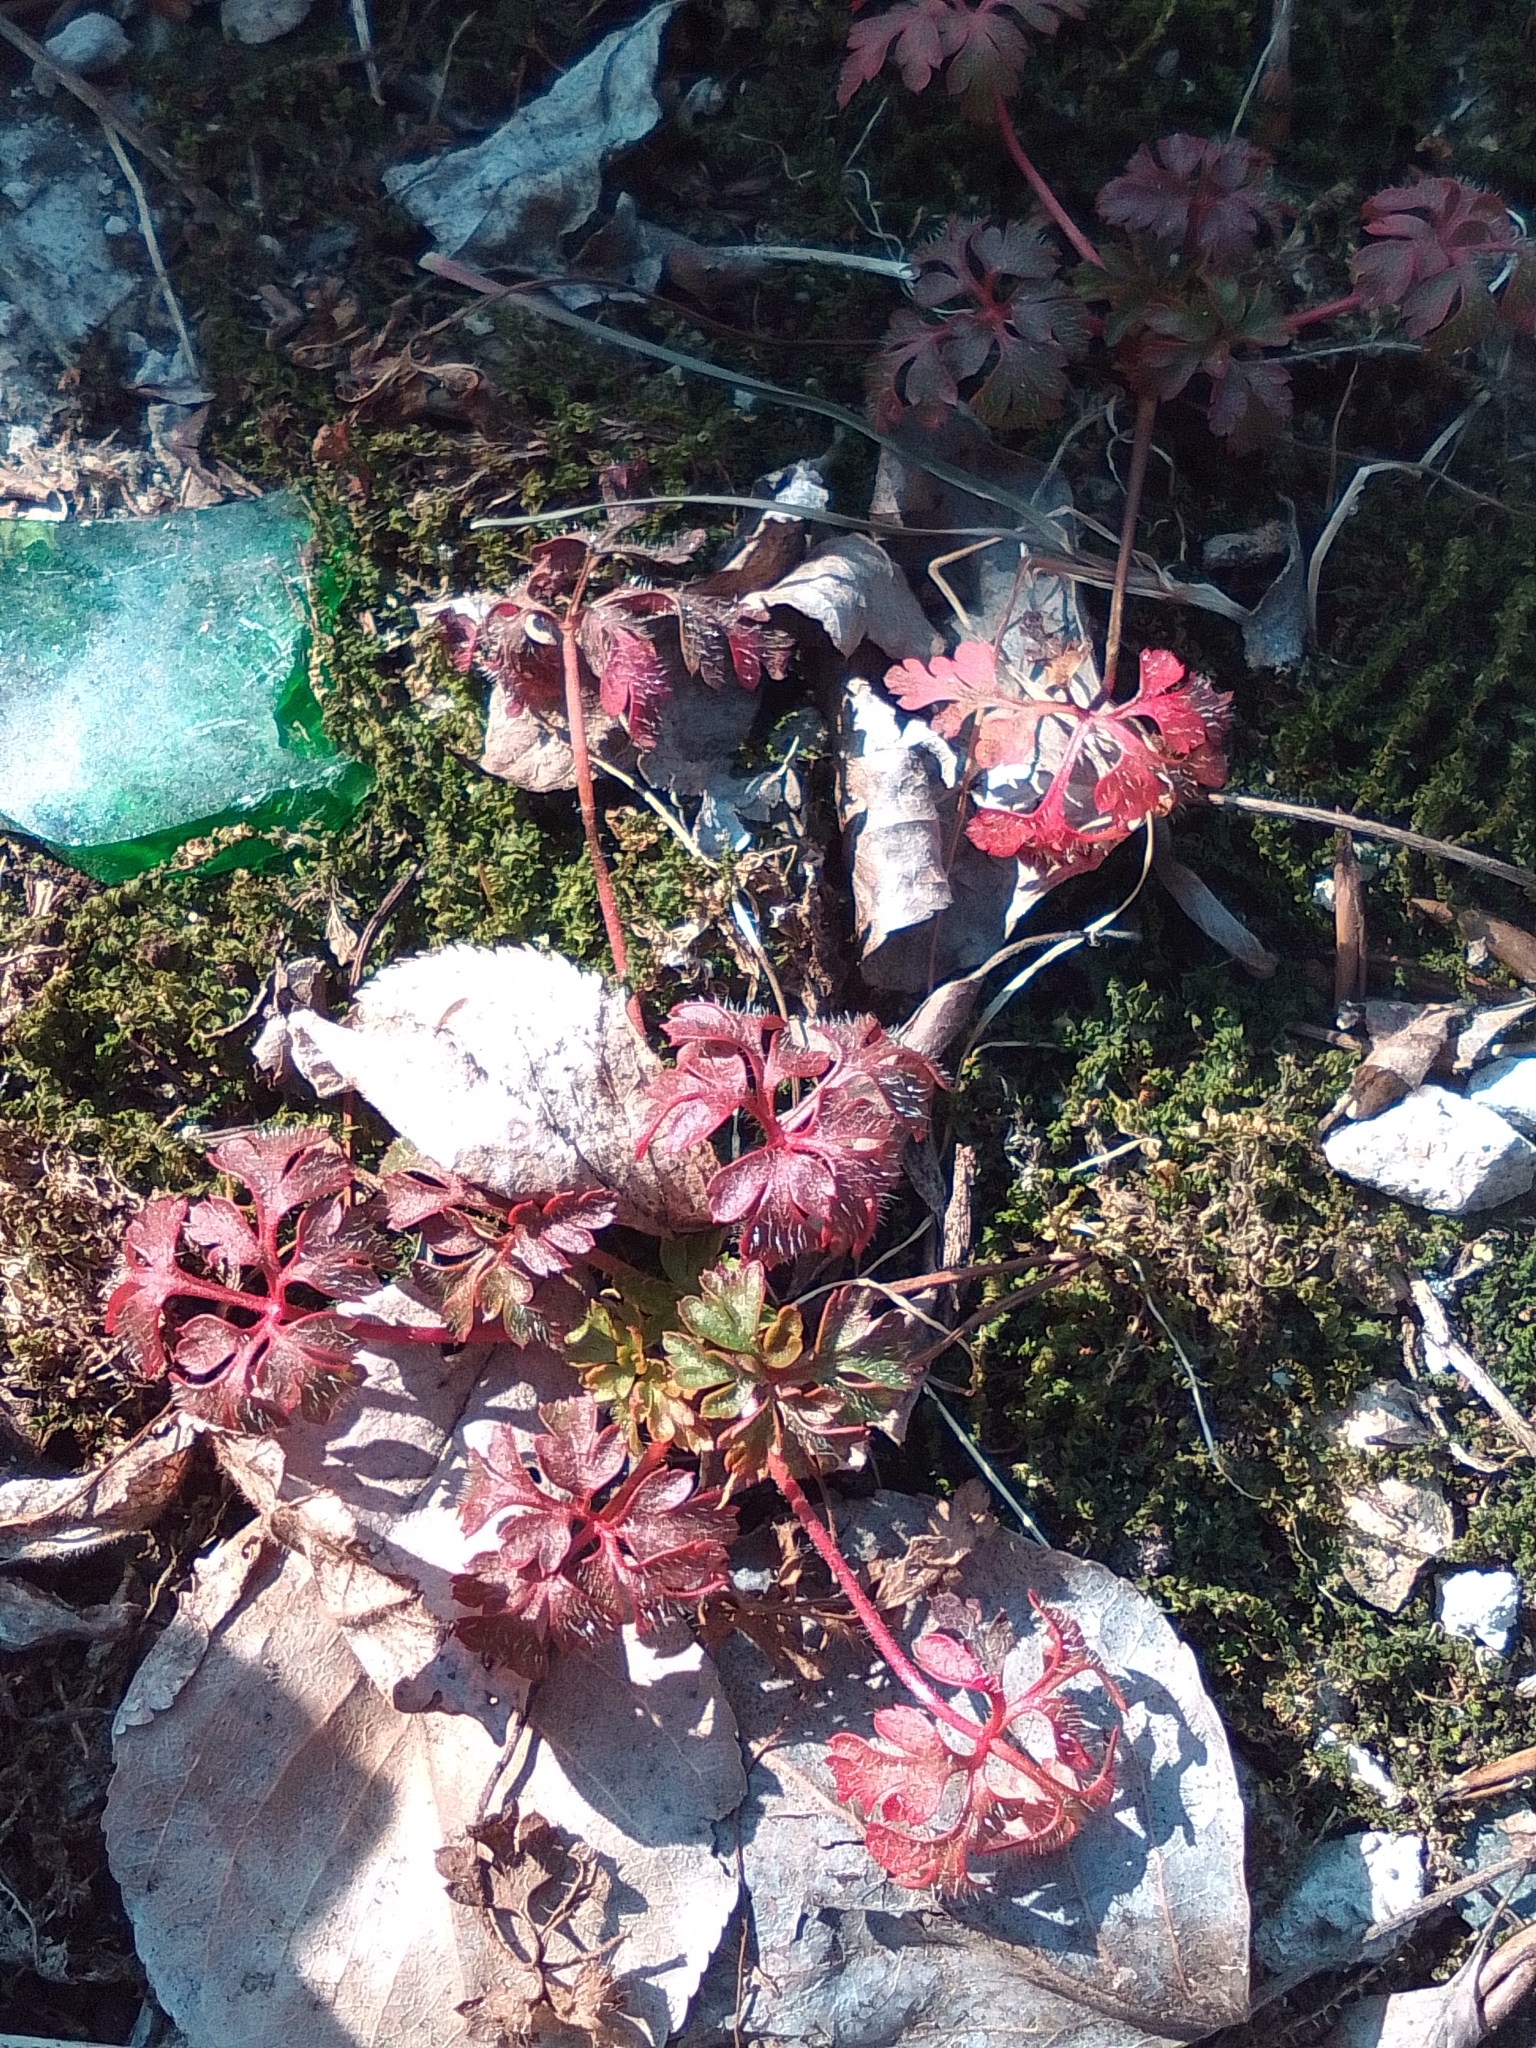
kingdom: Plantae
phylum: Tracheophyta
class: Magnoliopsida
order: Geraniales
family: Geraniaceae
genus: Geranium
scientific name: Geranium robertianum
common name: Herb-robert
